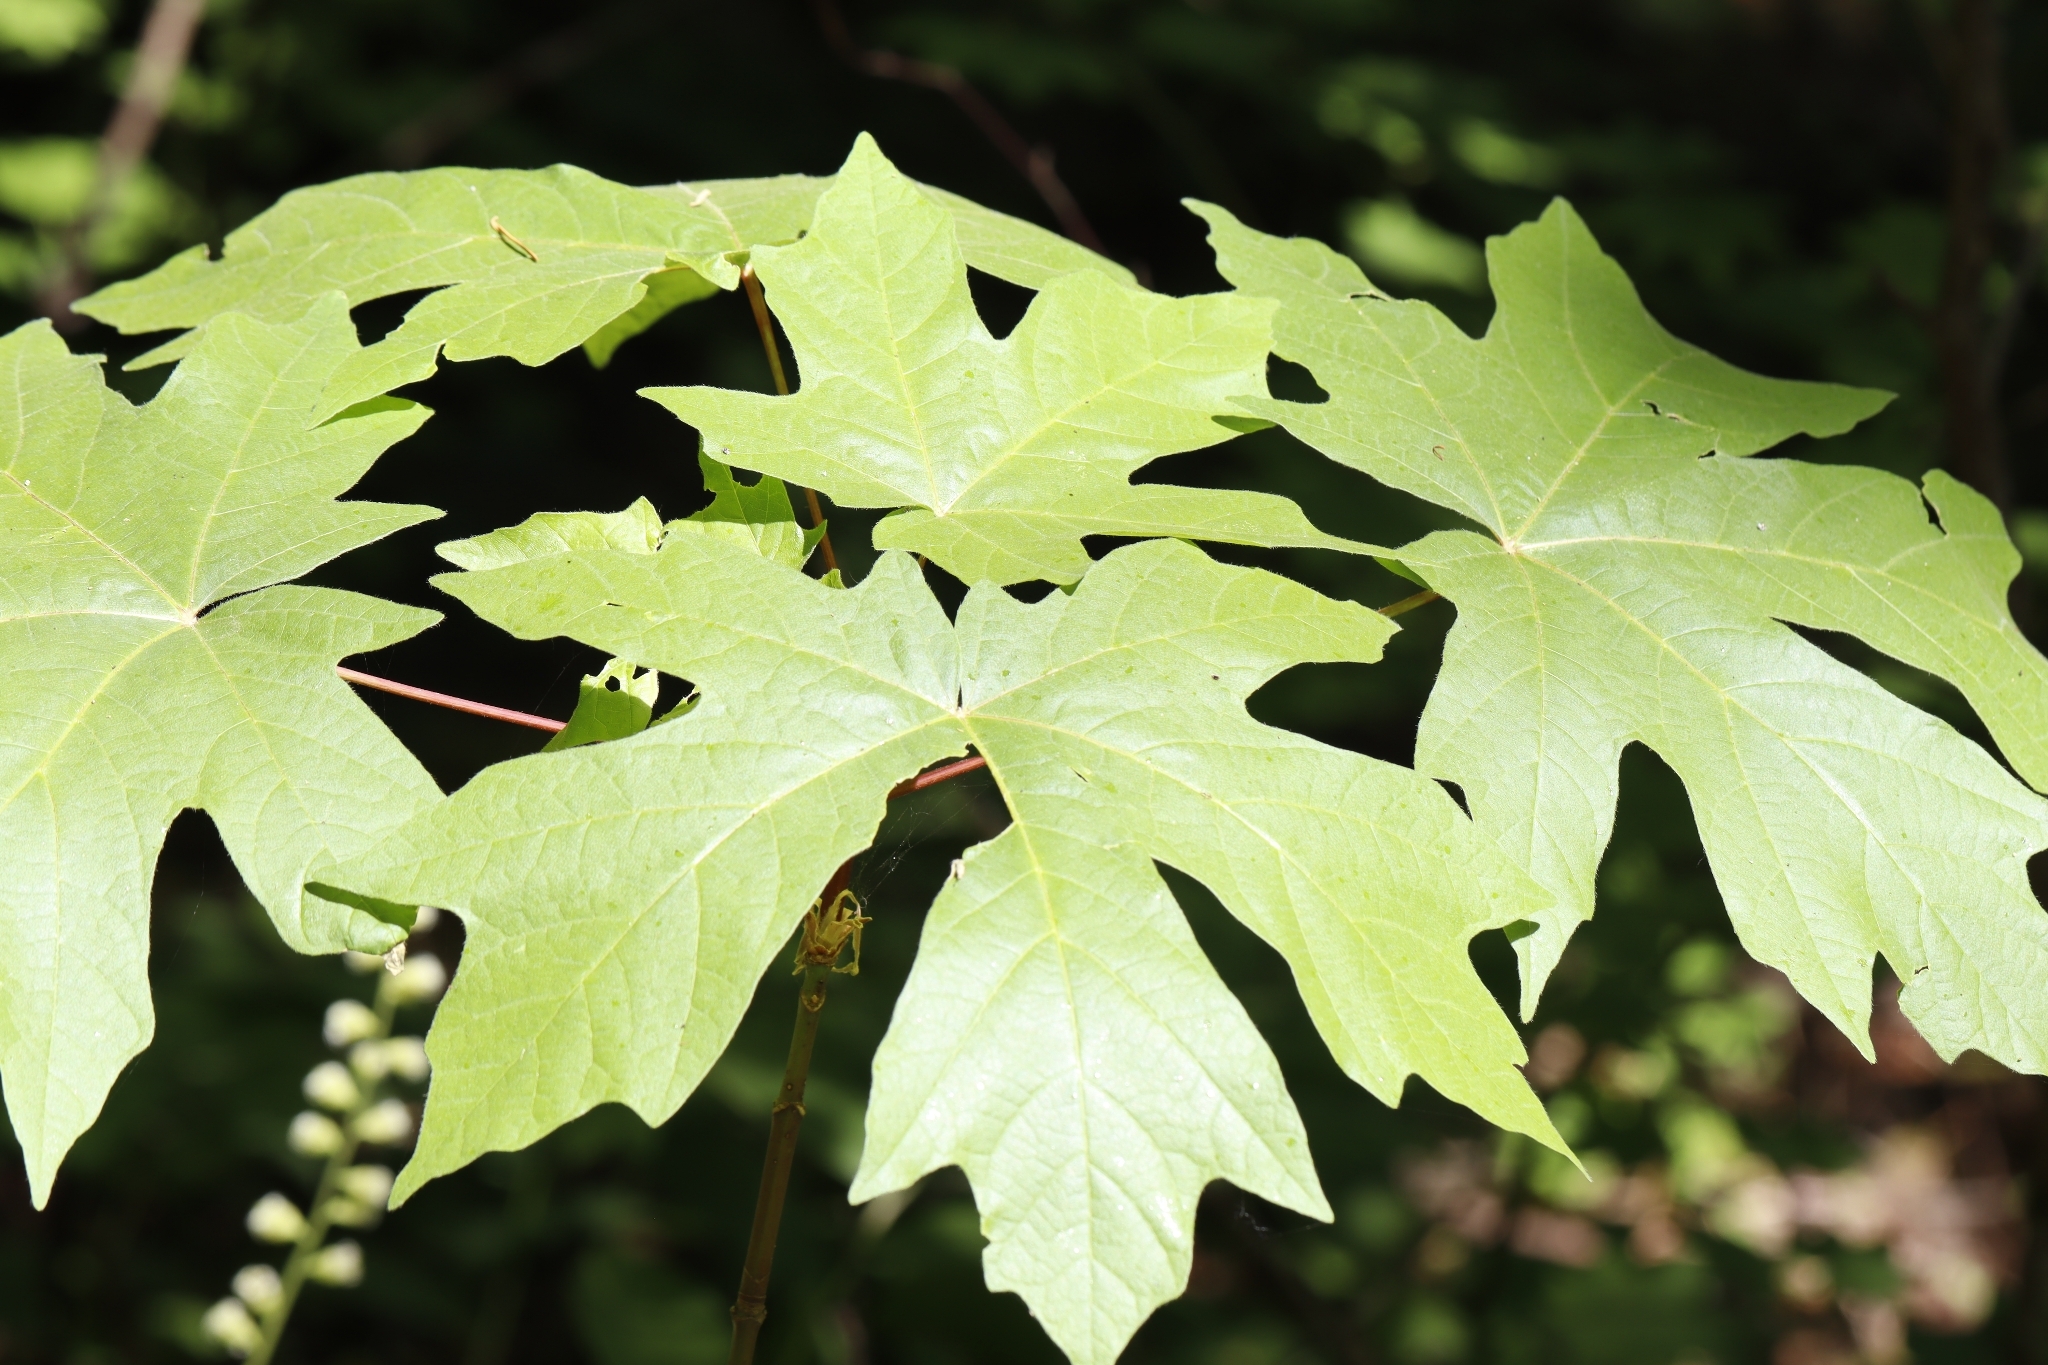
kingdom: Plantae
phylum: Tracheophyta
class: Magnoliopsida
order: Sapindales
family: Sapindaceae
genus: Acer
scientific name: Acer macrophyllum
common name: Oregon maple
